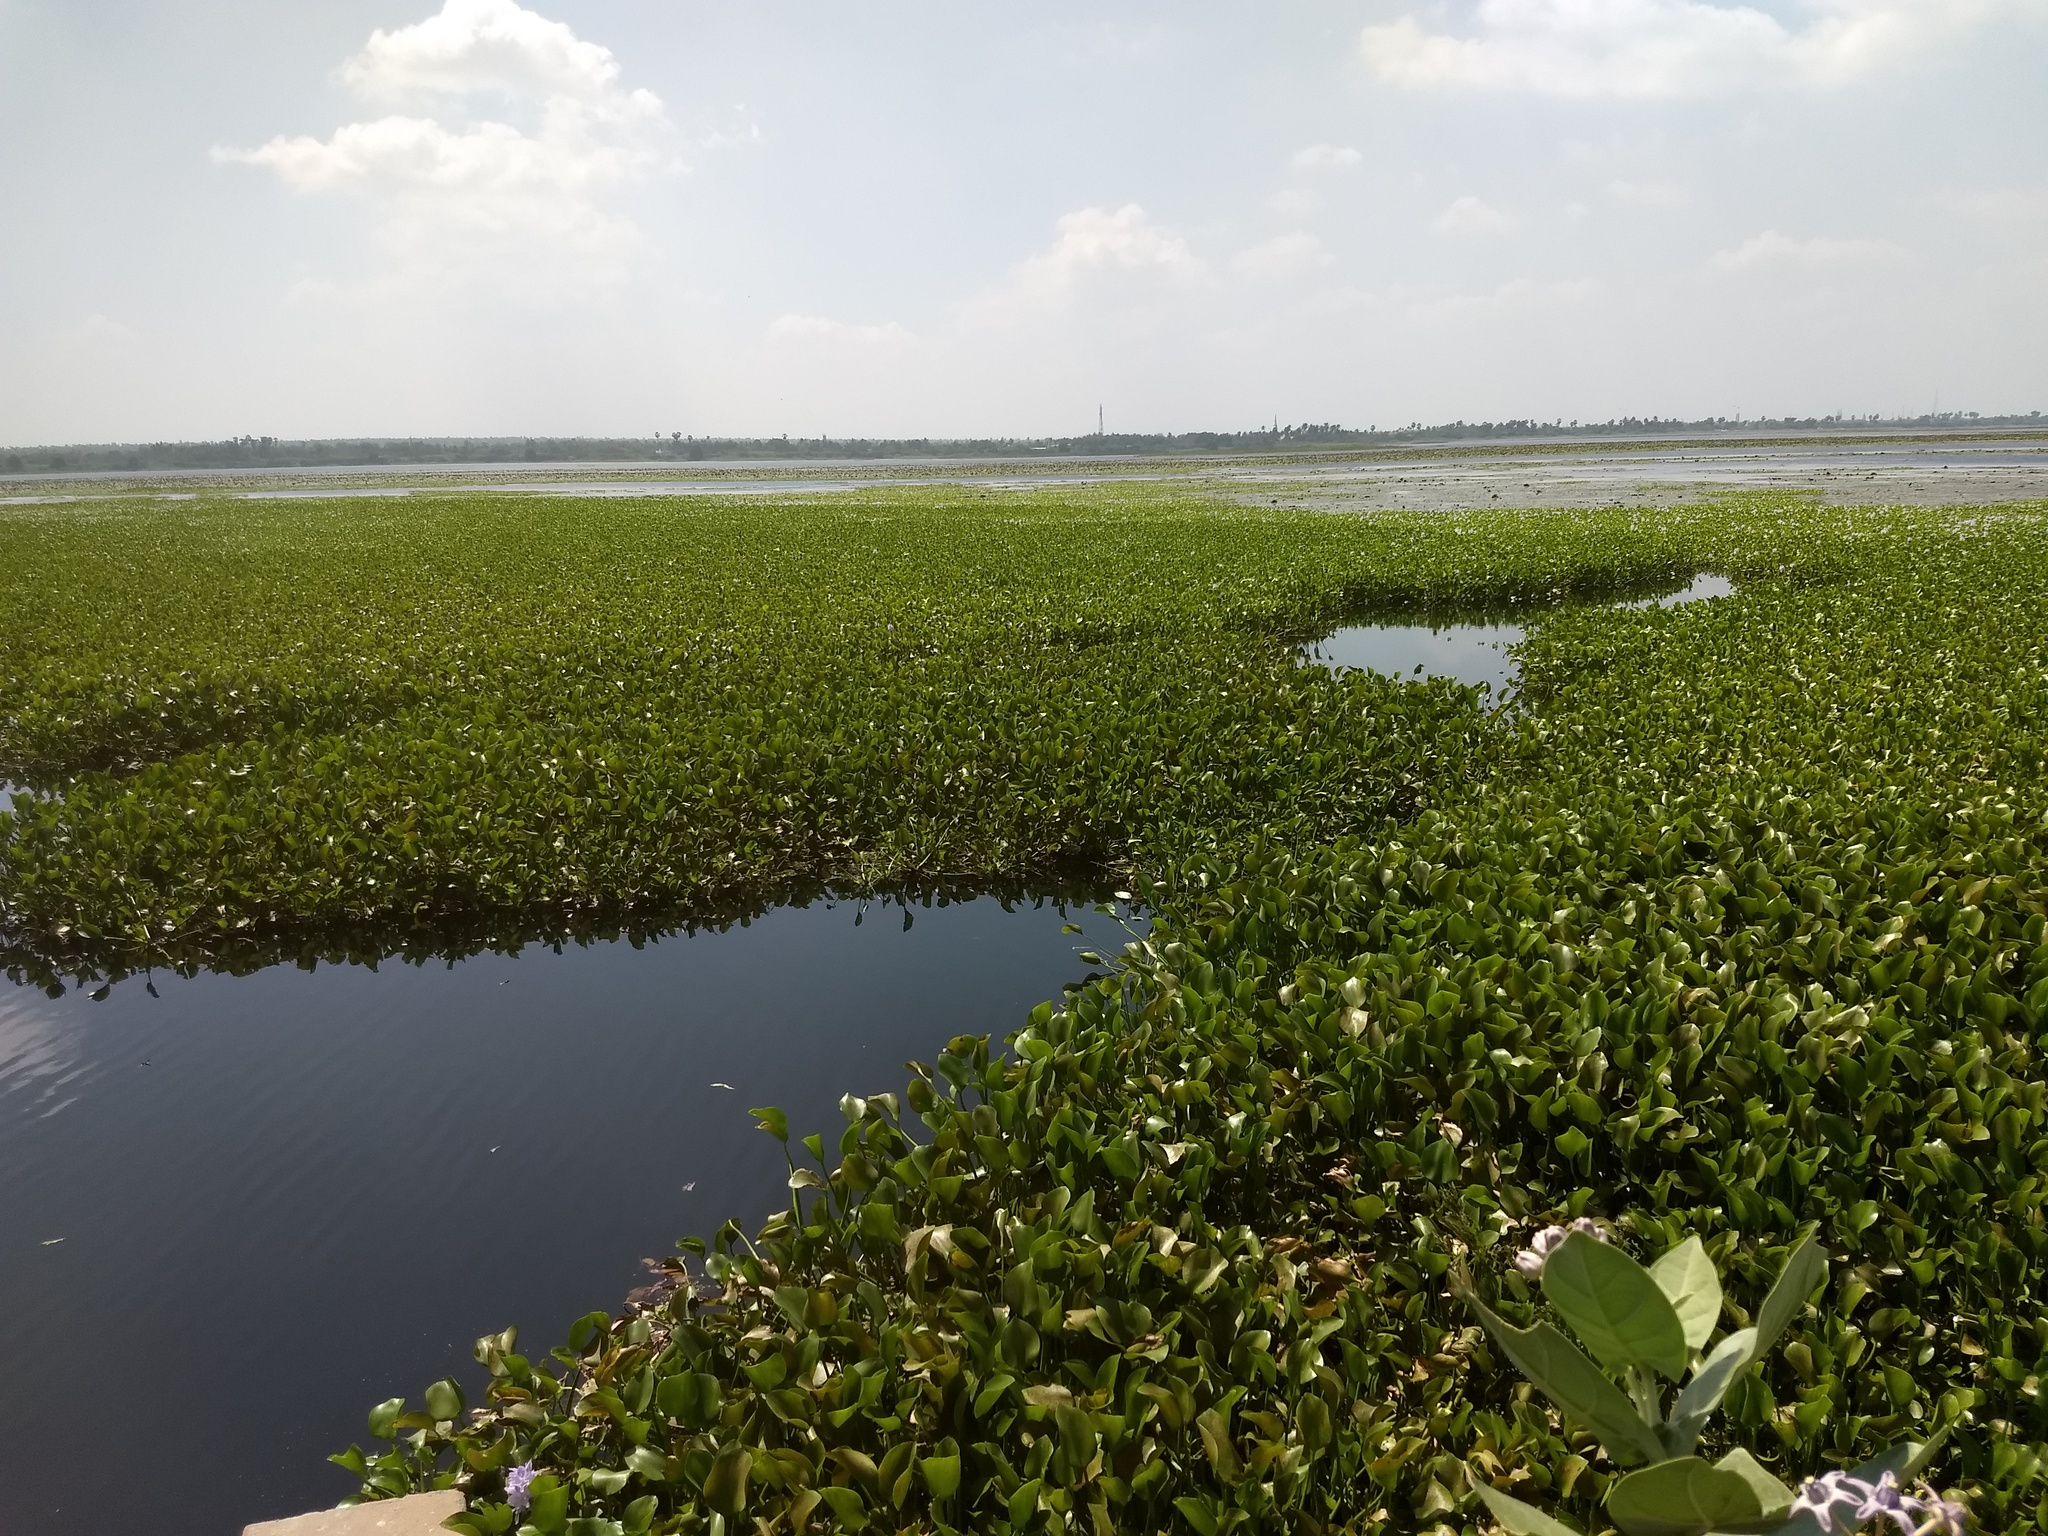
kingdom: Plantae
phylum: Tracheophyta
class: Liliopsida
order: Commelinales
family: Pontederiaceae
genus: Pontederia
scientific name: Pontederia crassipes
